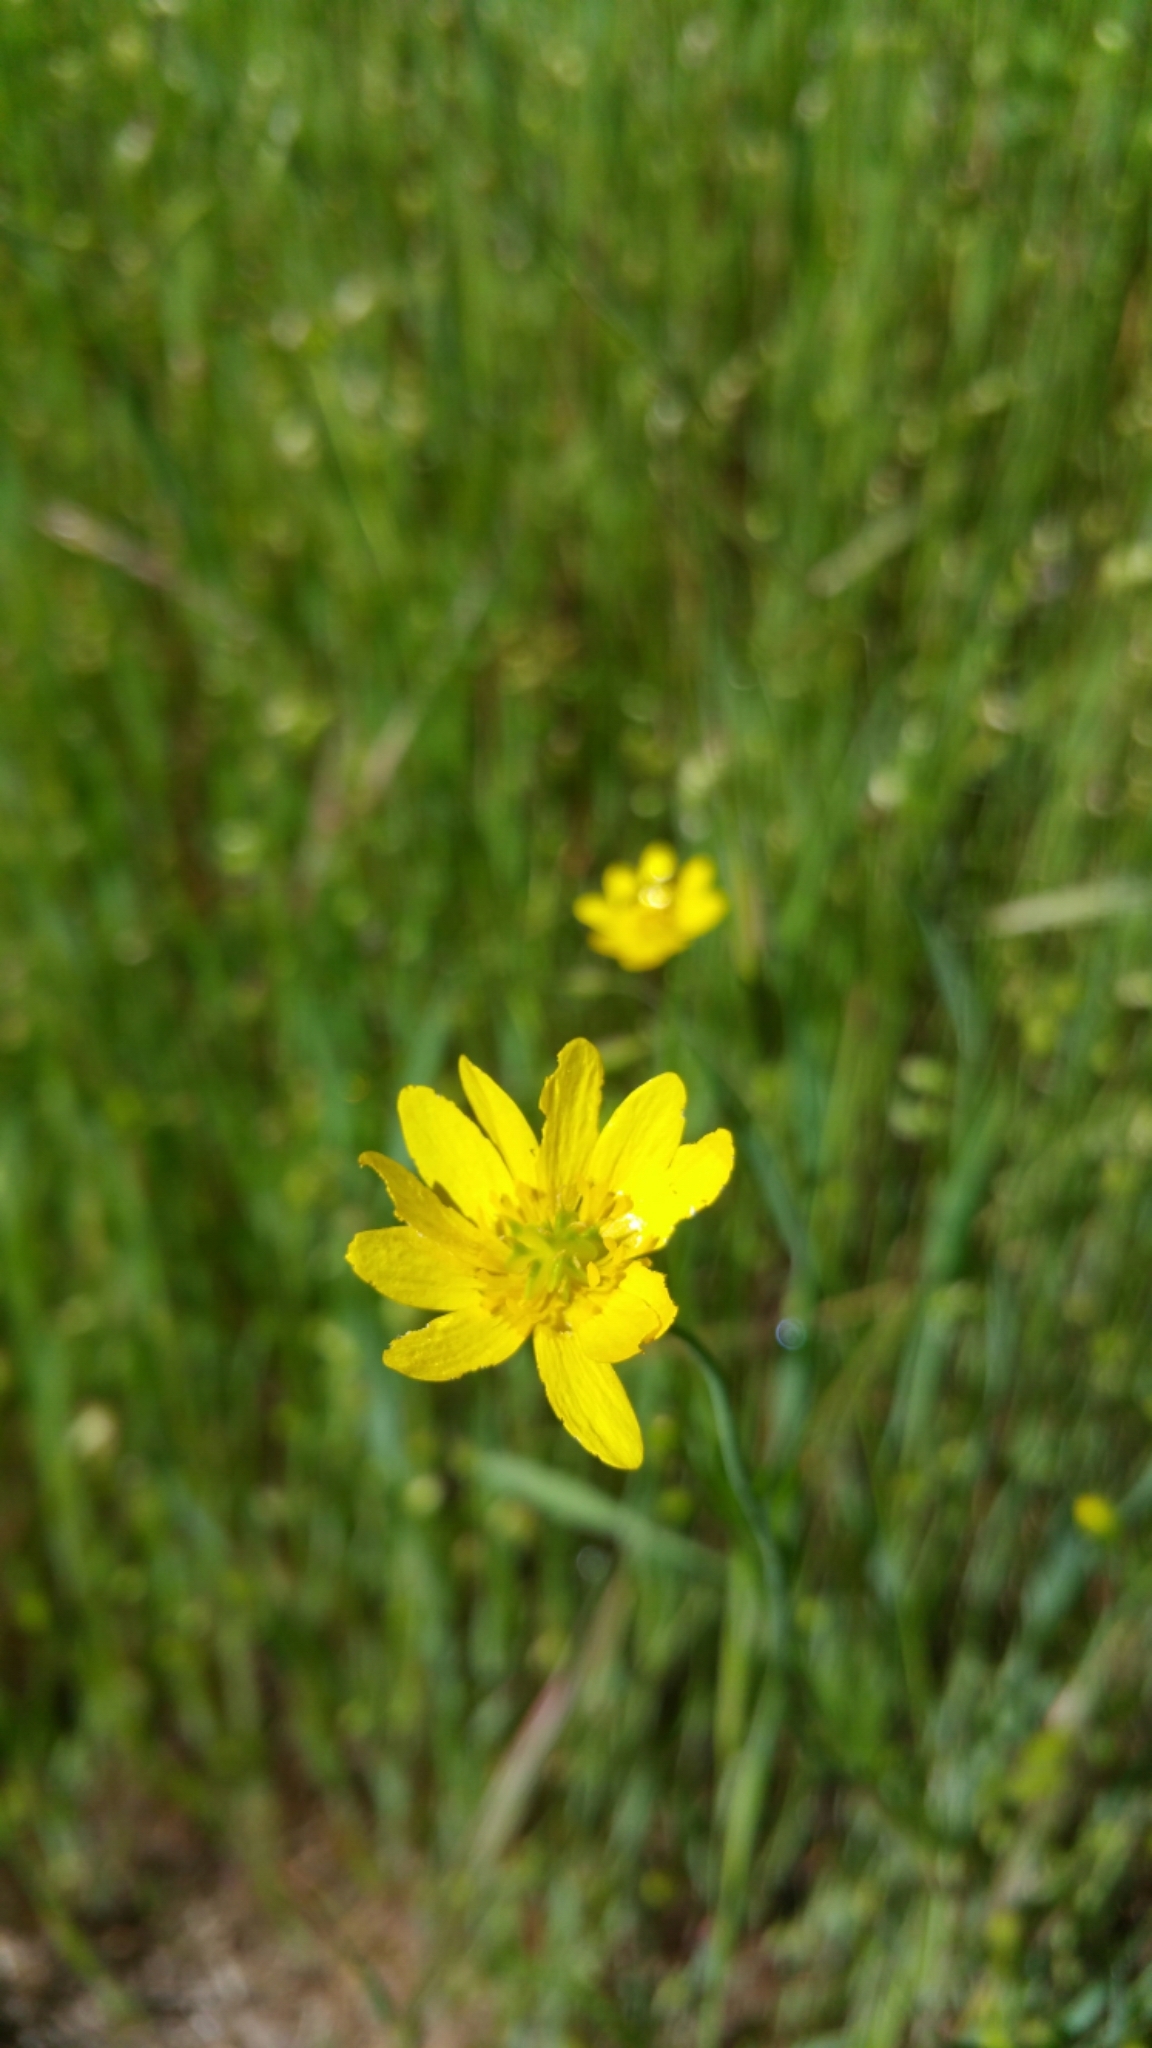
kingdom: Plantae
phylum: Tracheophyta
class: Magnoliopsida
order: Ranunculales
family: Ranunculaceae
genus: Ranunculus
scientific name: Ranunculus californicus
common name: California buttercup
